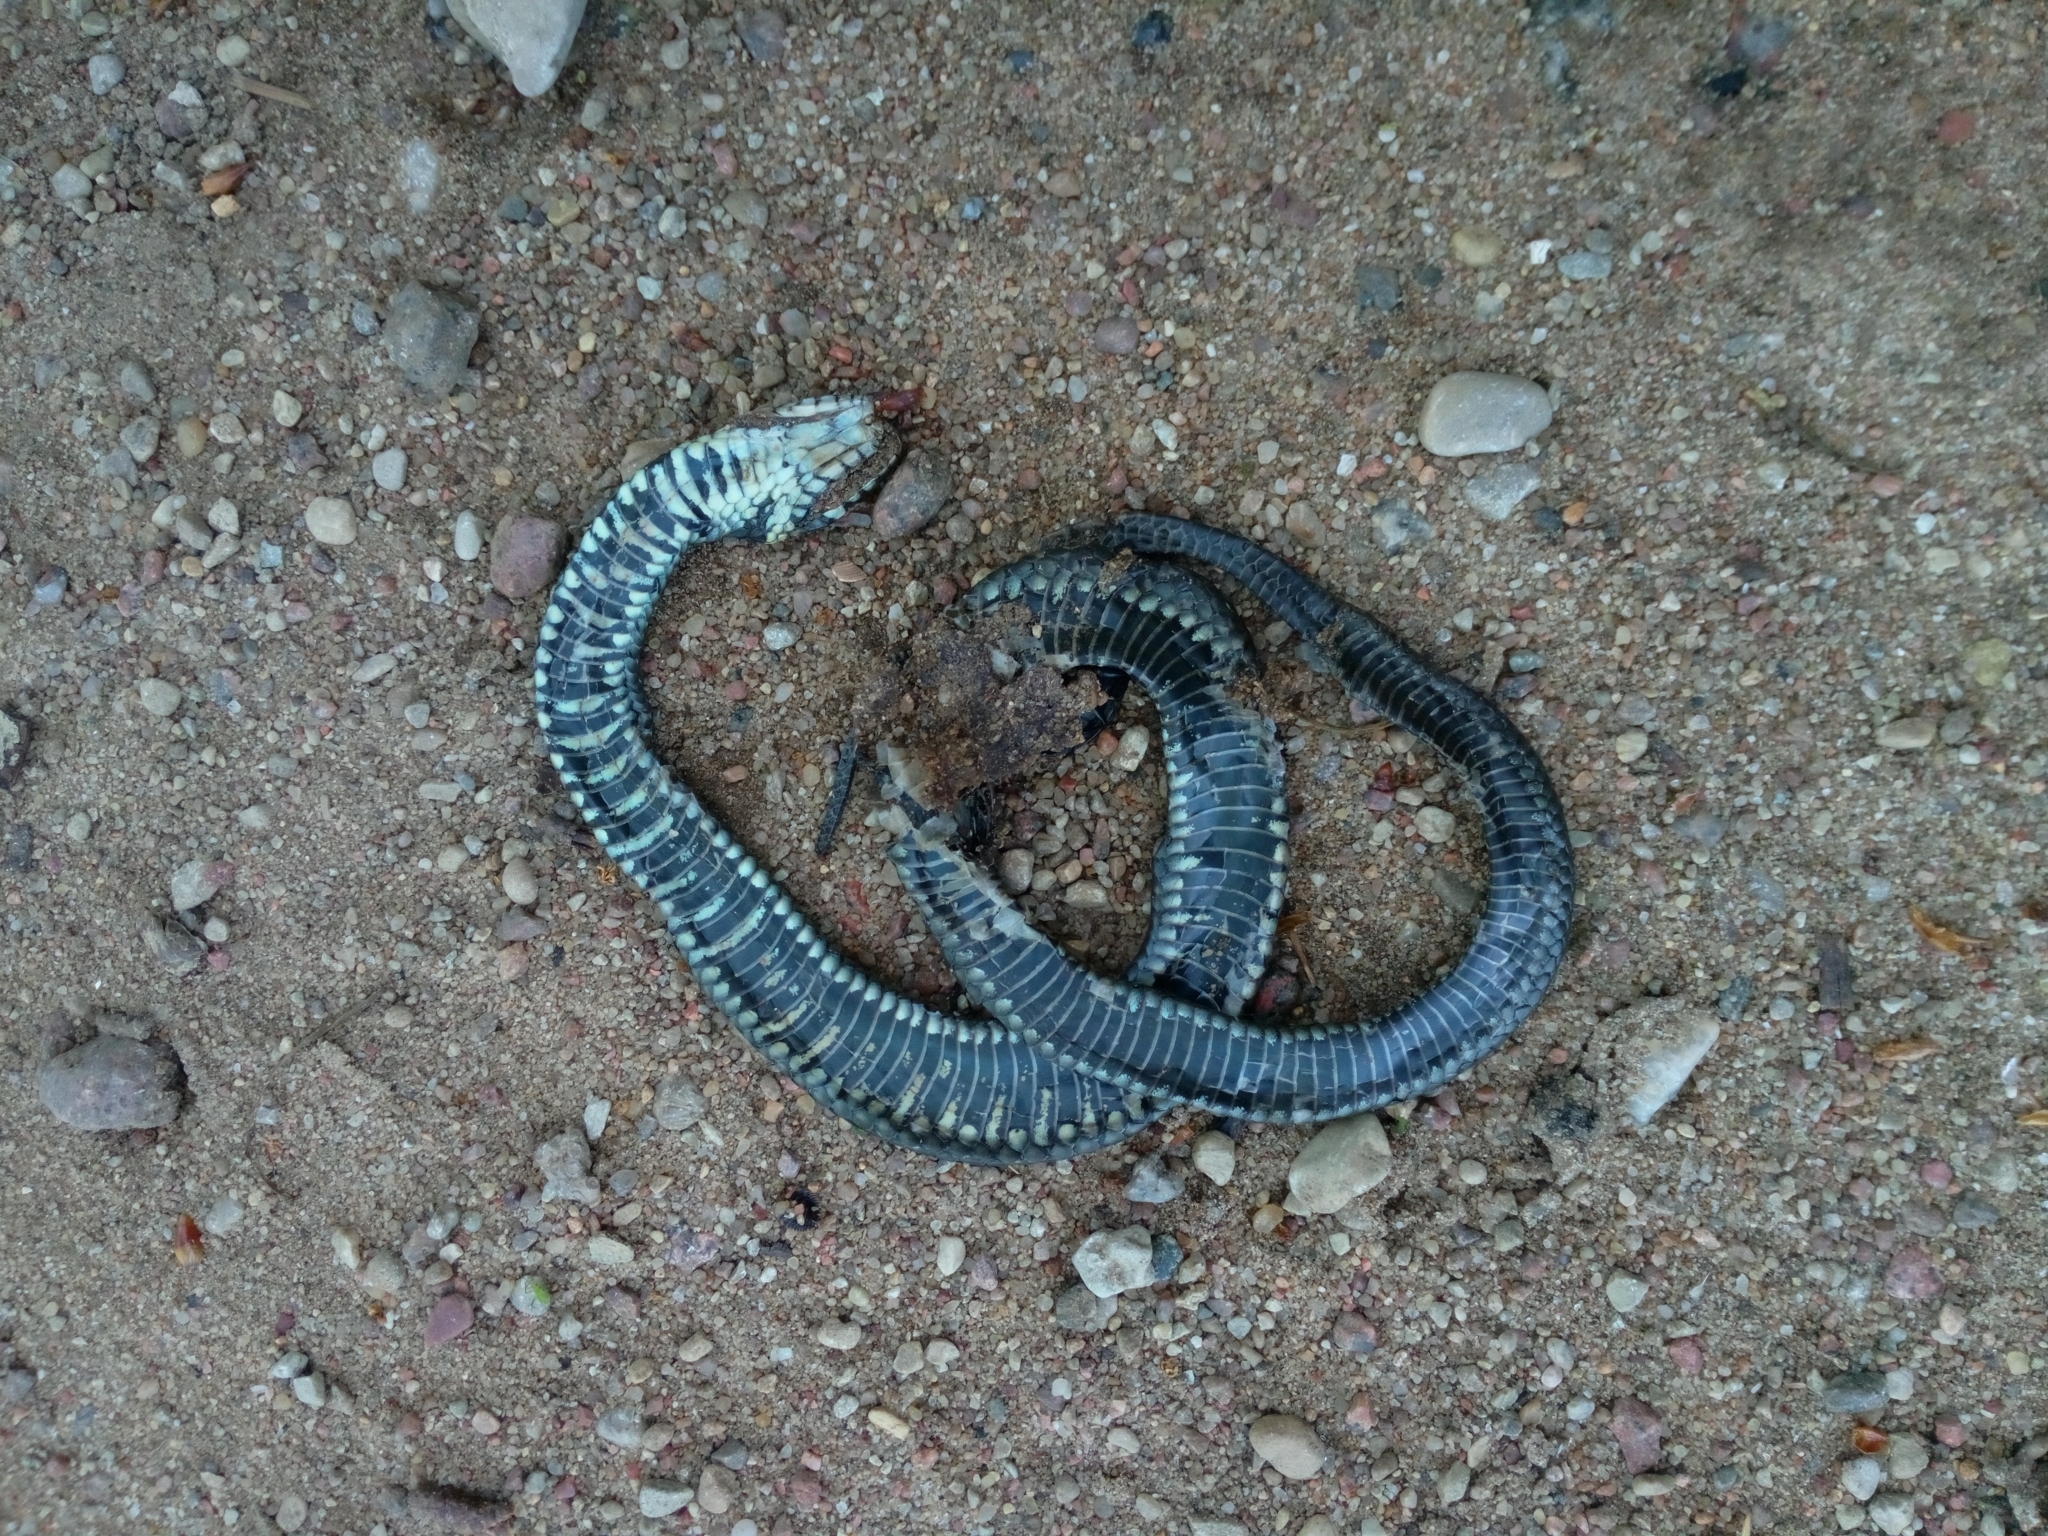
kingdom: Animalia
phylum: Chordata
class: Squamata
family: Colubridae
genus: Natrix
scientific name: Natrix natrix
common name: Grass snake
